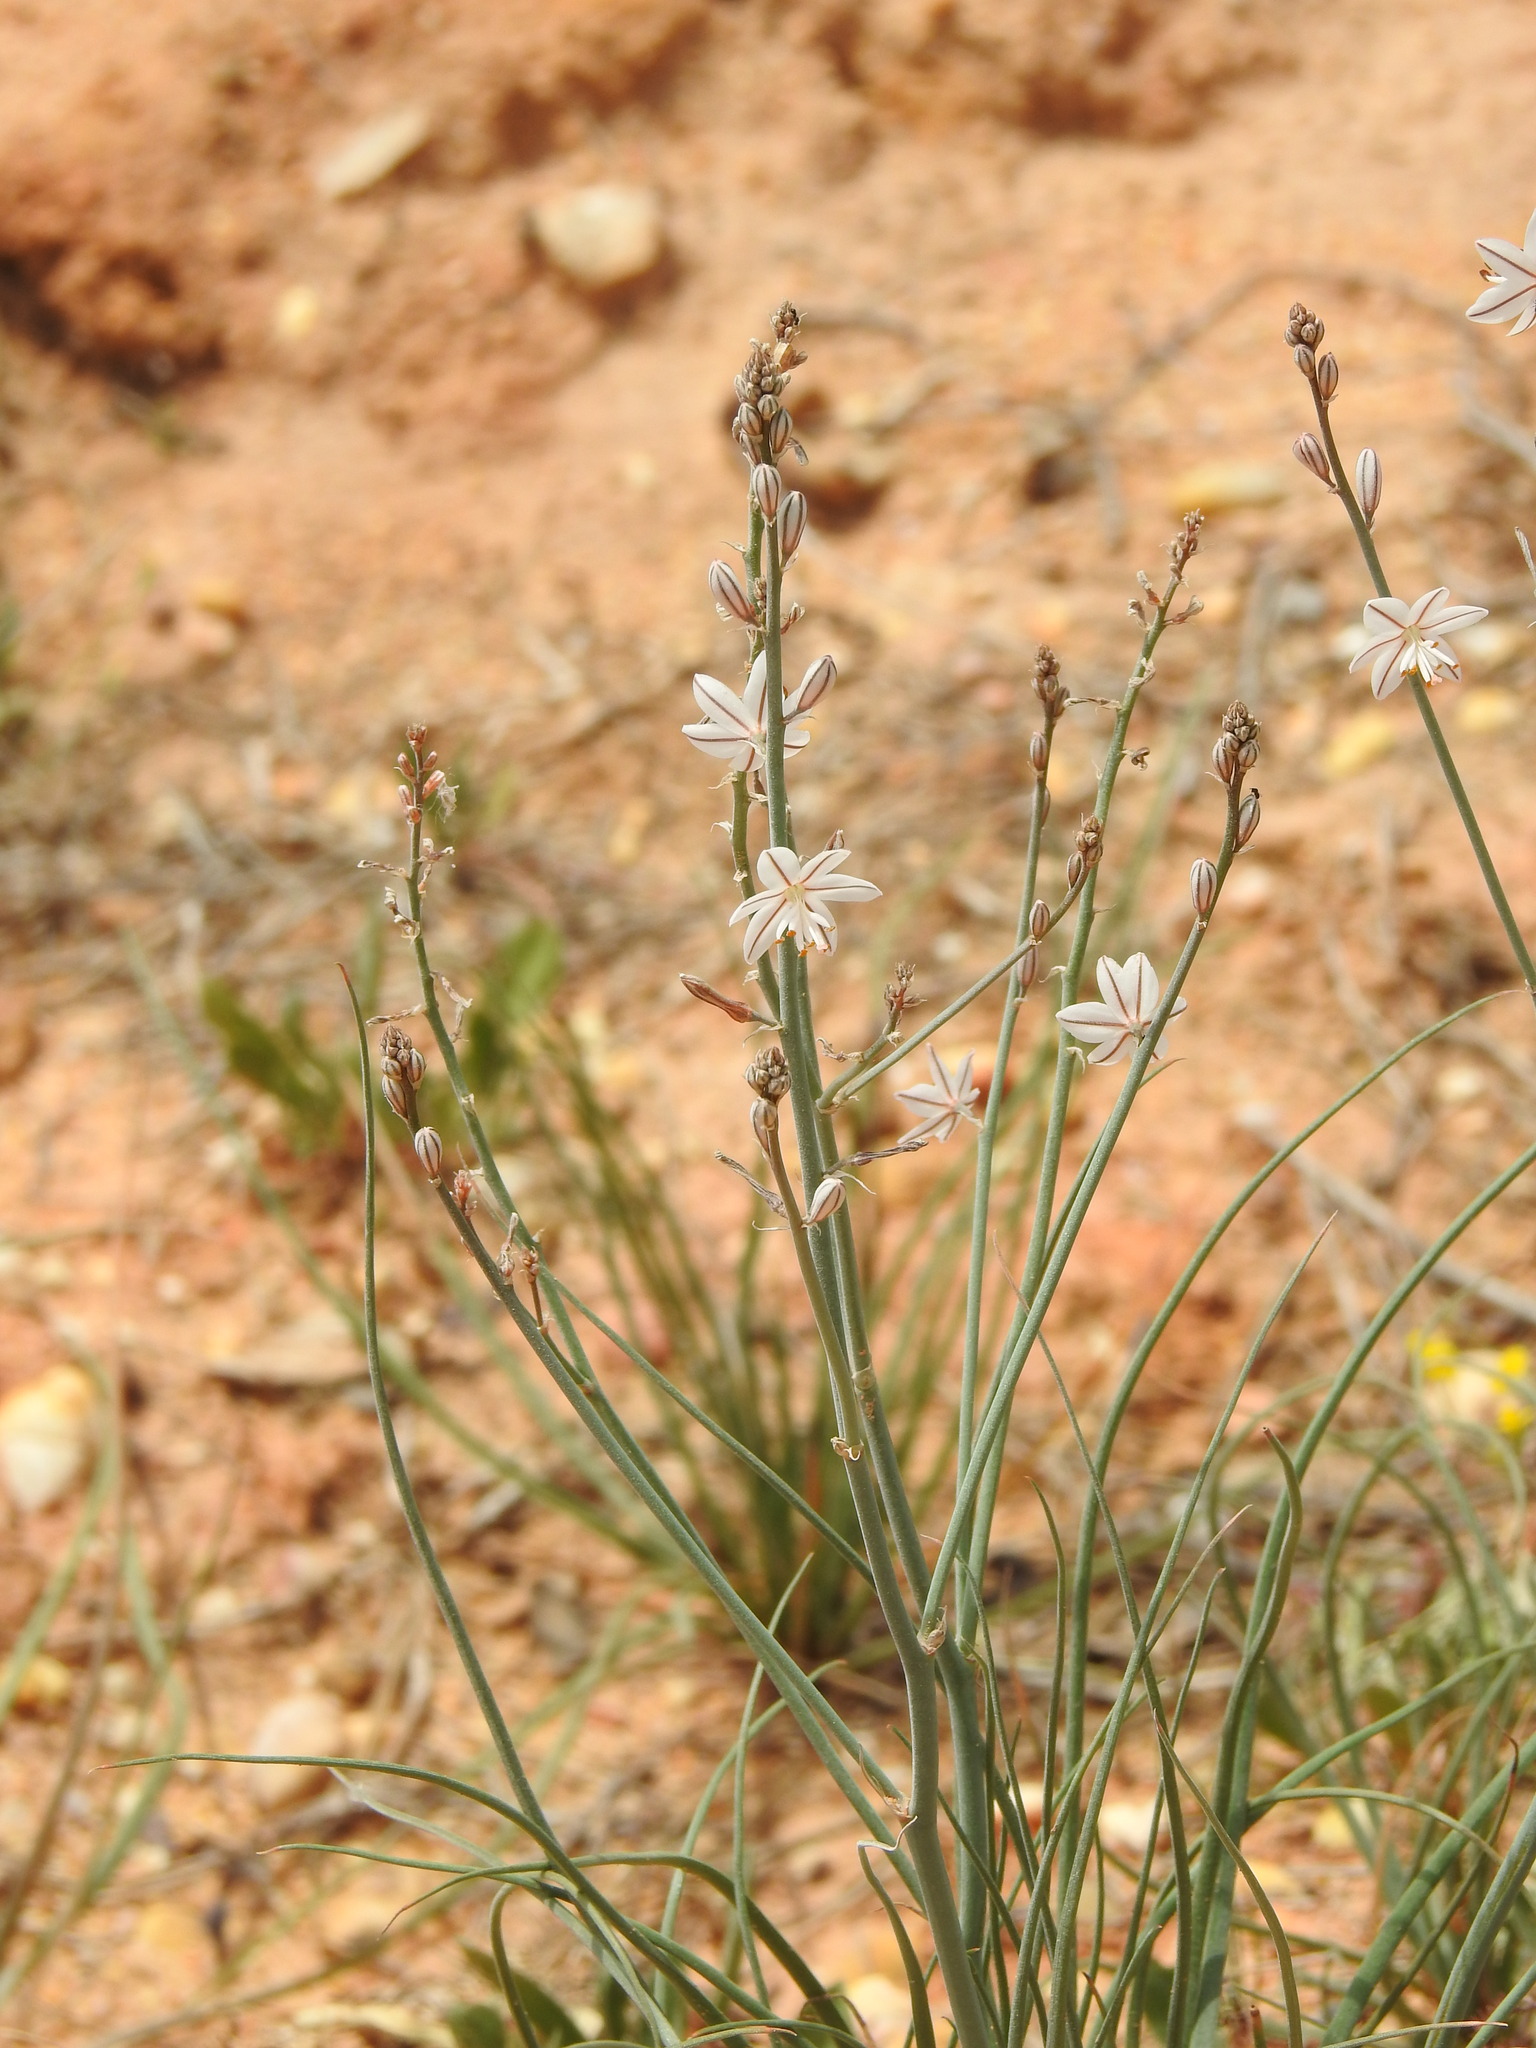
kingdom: Plantae
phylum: Tracheophyta
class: Liliopsida
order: Asparagales
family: Asphodelaceae
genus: Asphodelus
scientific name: Asphodelus fistulosus
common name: Onionweed
